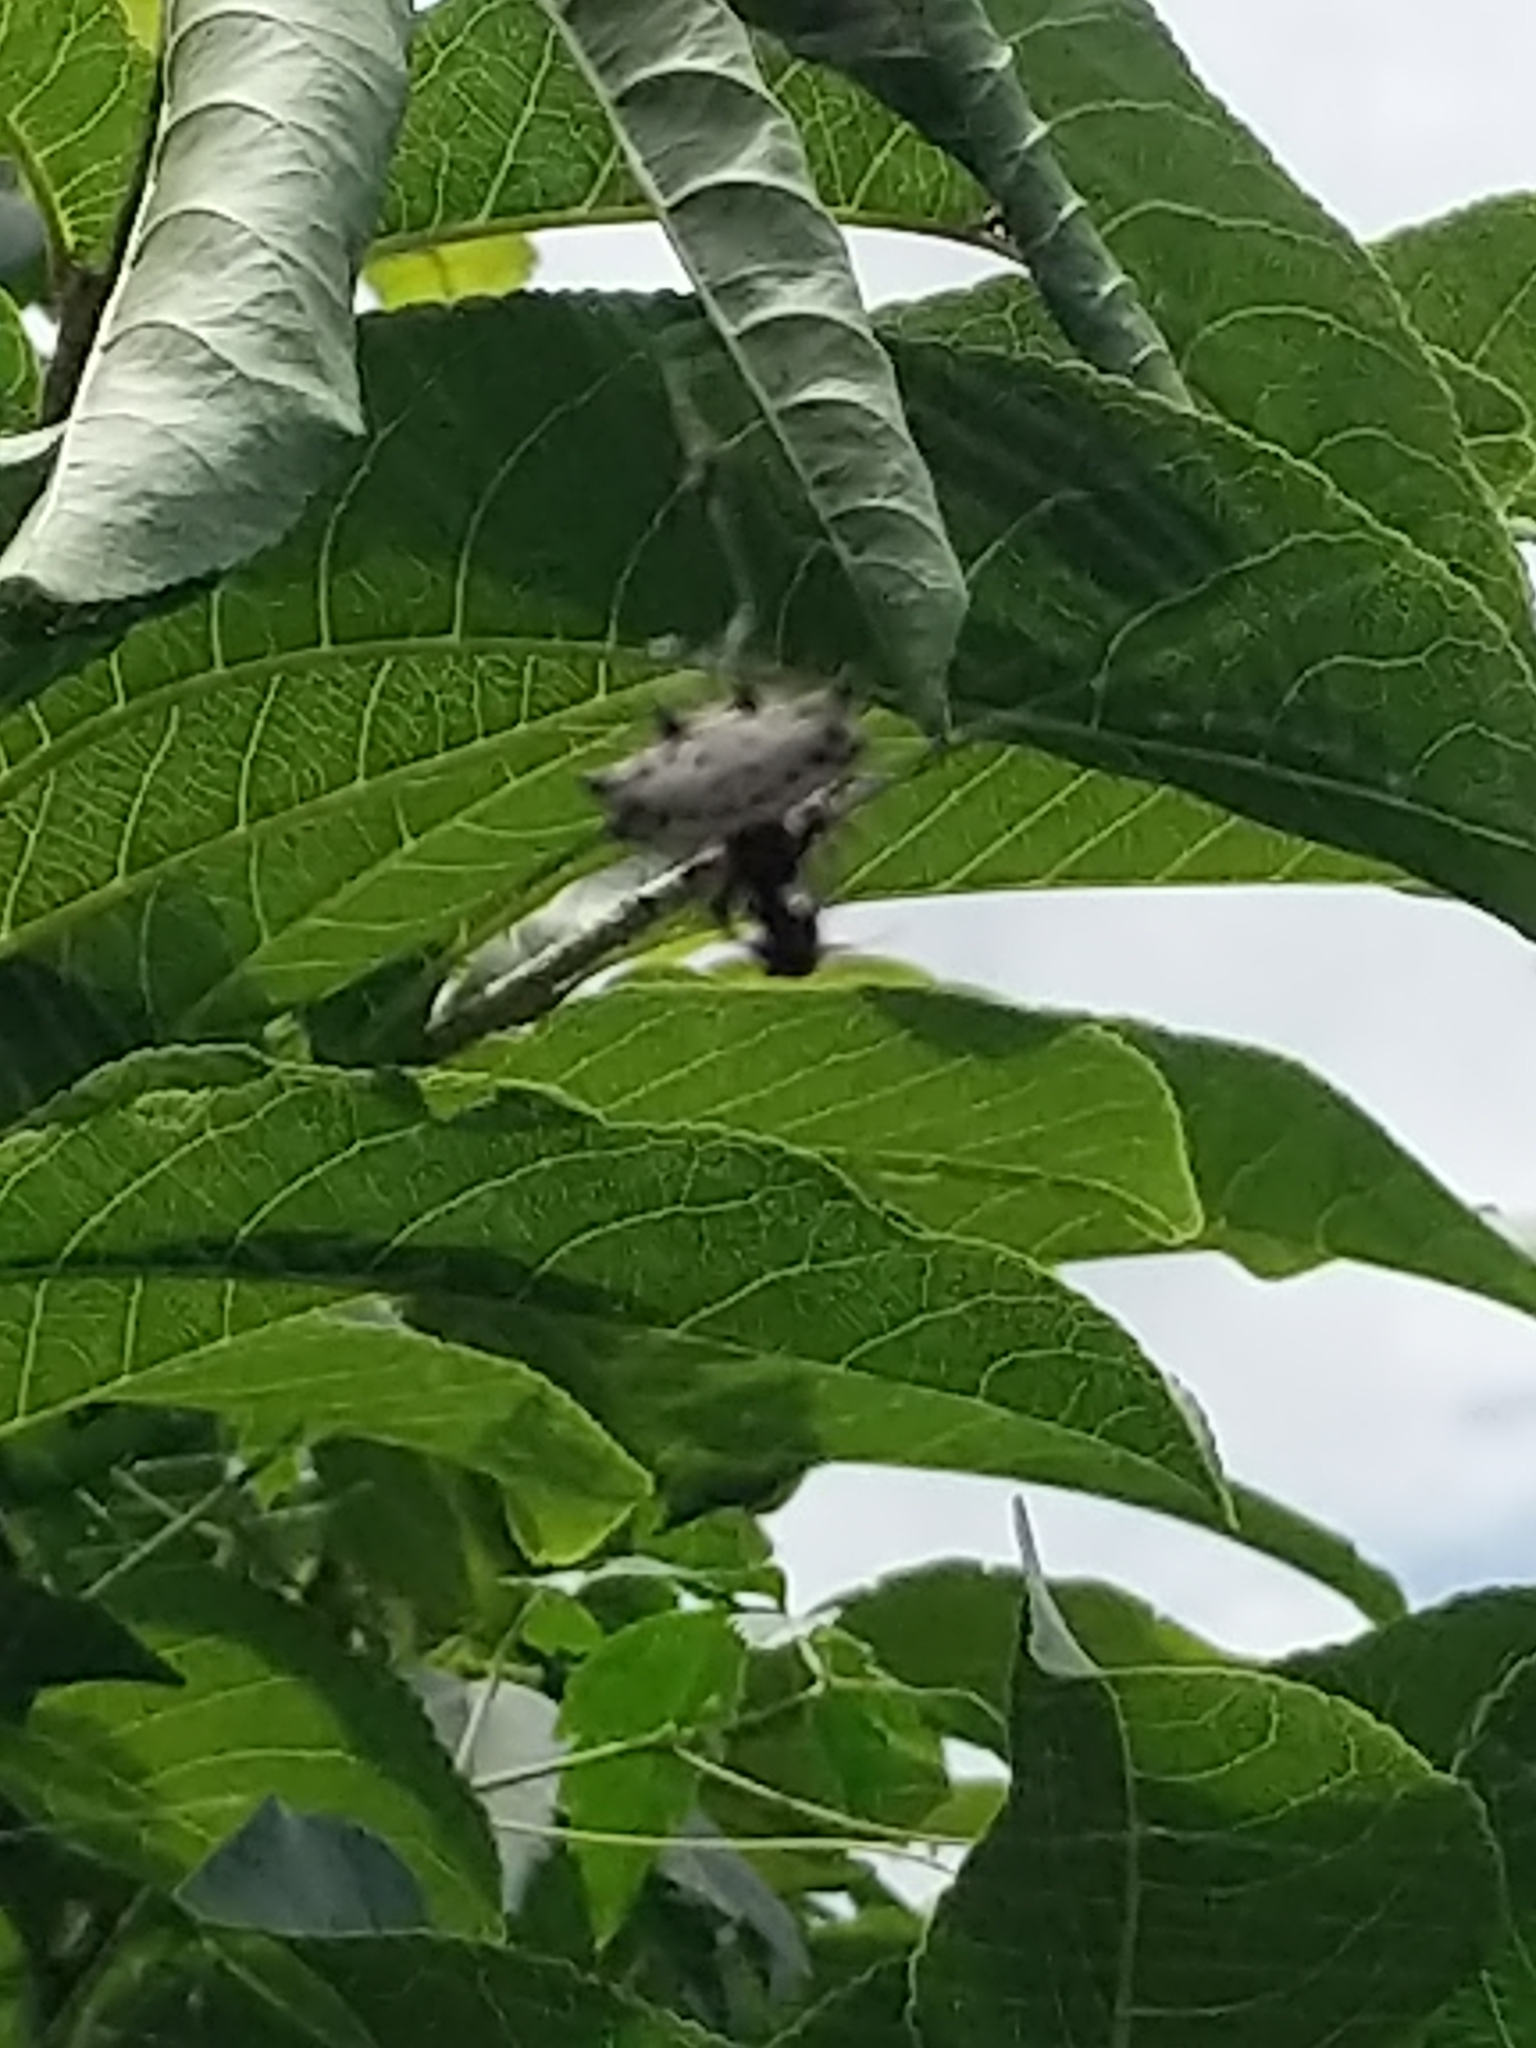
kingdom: Animalia
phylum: Arthropoda
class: Arachnida
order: Araneae
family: Araneidae
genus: Gasteracantha
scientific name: Gasteracantha cancriformis
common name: Orb weavers
